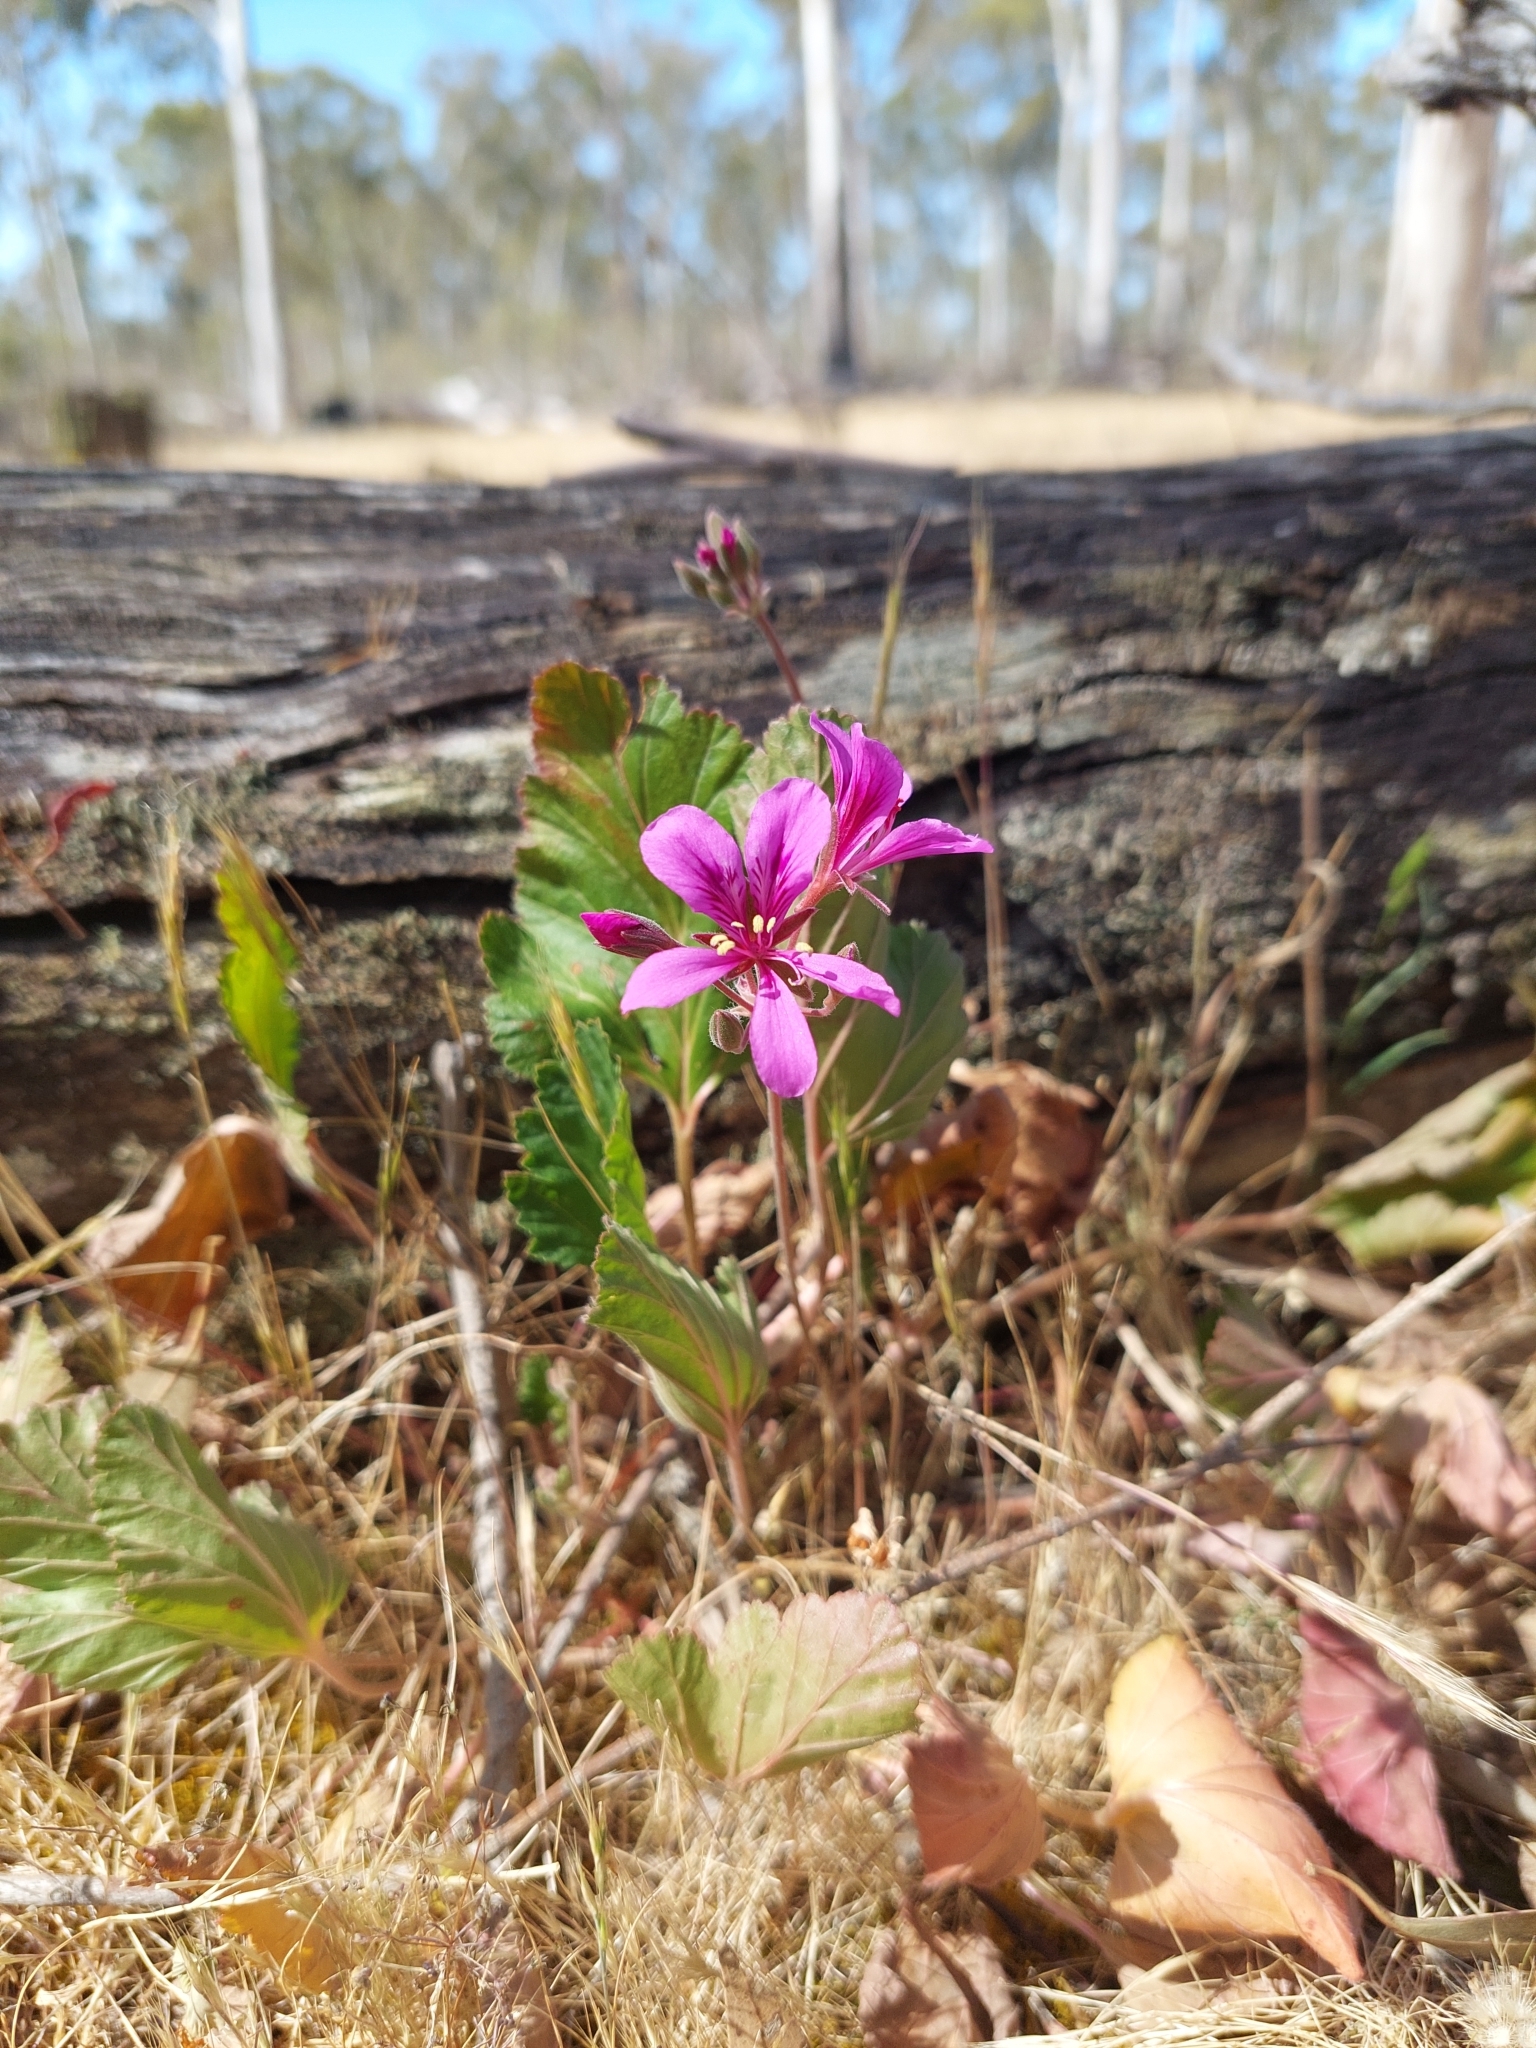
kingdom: Plantae
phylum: Tracheophyta
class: Magnoliopsida
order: Geraniales
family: Geraniaceae
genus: Pelargonium
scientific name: Pelargonium rodneyanum
